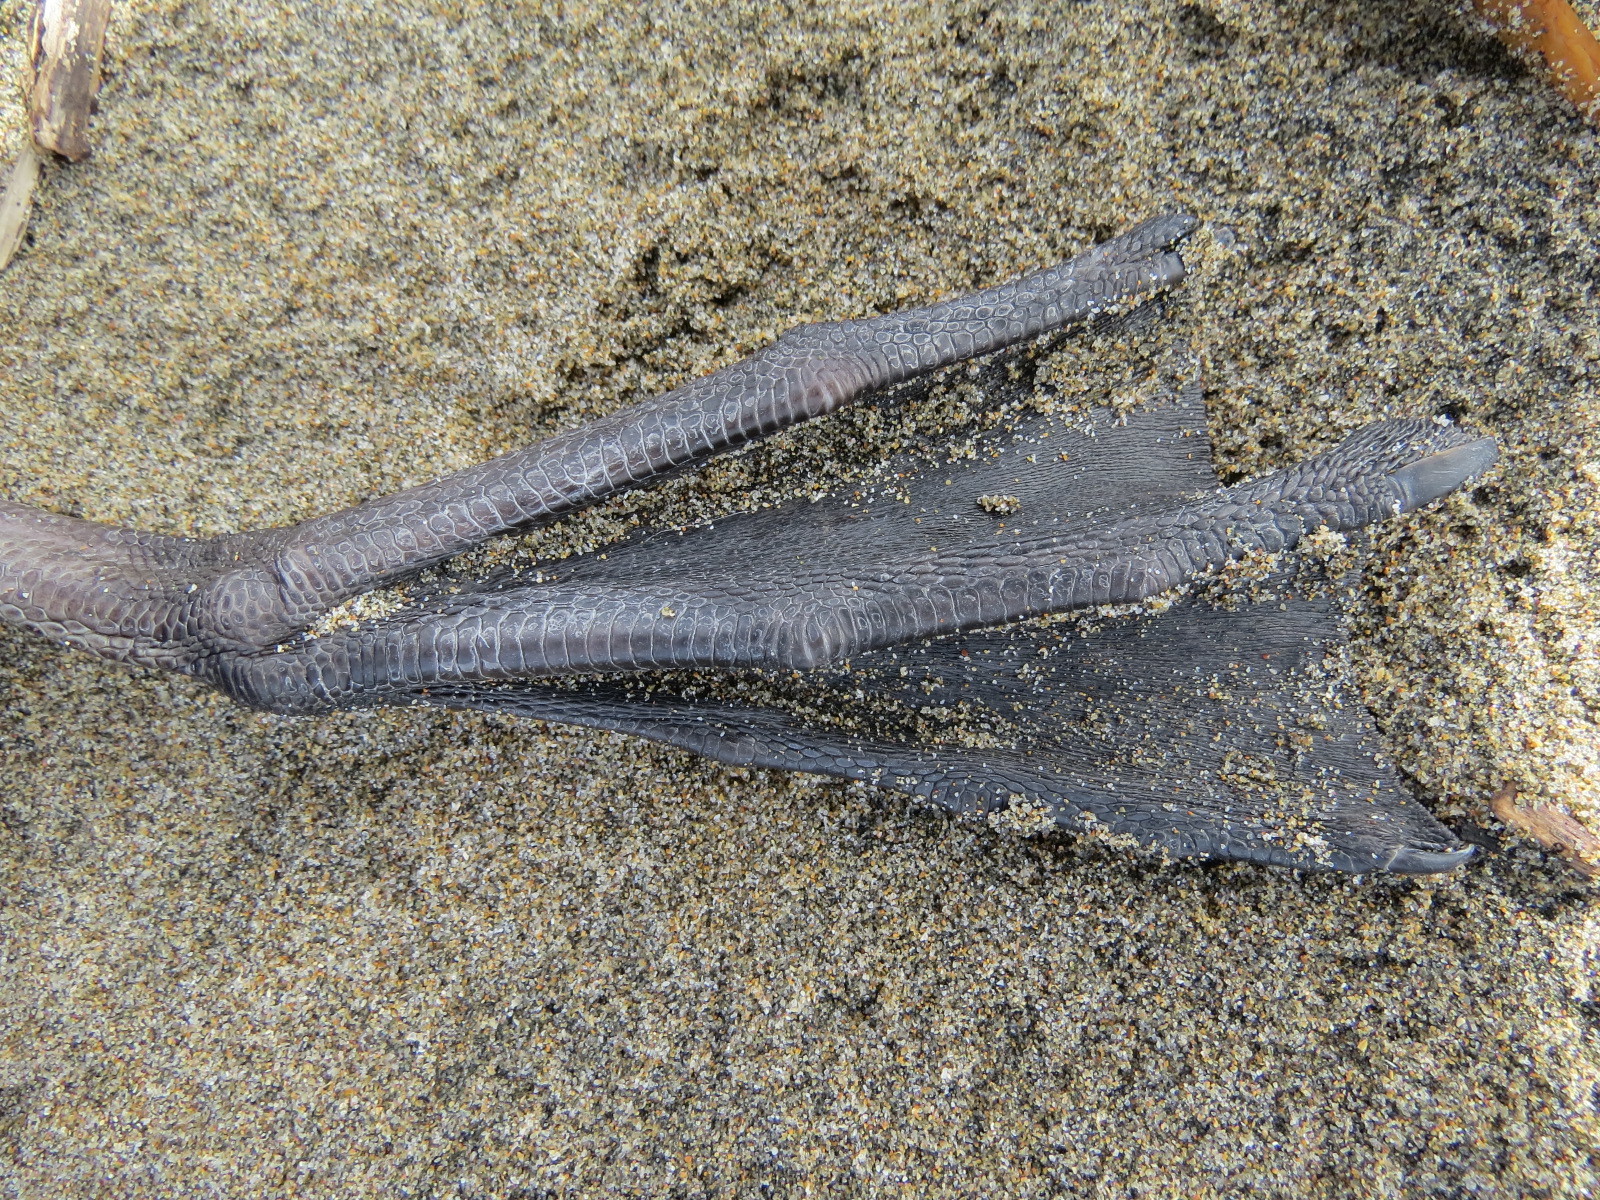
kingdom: Animalia
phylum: Chordata
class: Aves
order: Procellariiformes
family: Diomedeidae
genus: Phoebastria
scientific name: Phoebastria nigripes
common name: Black-footed albatross
